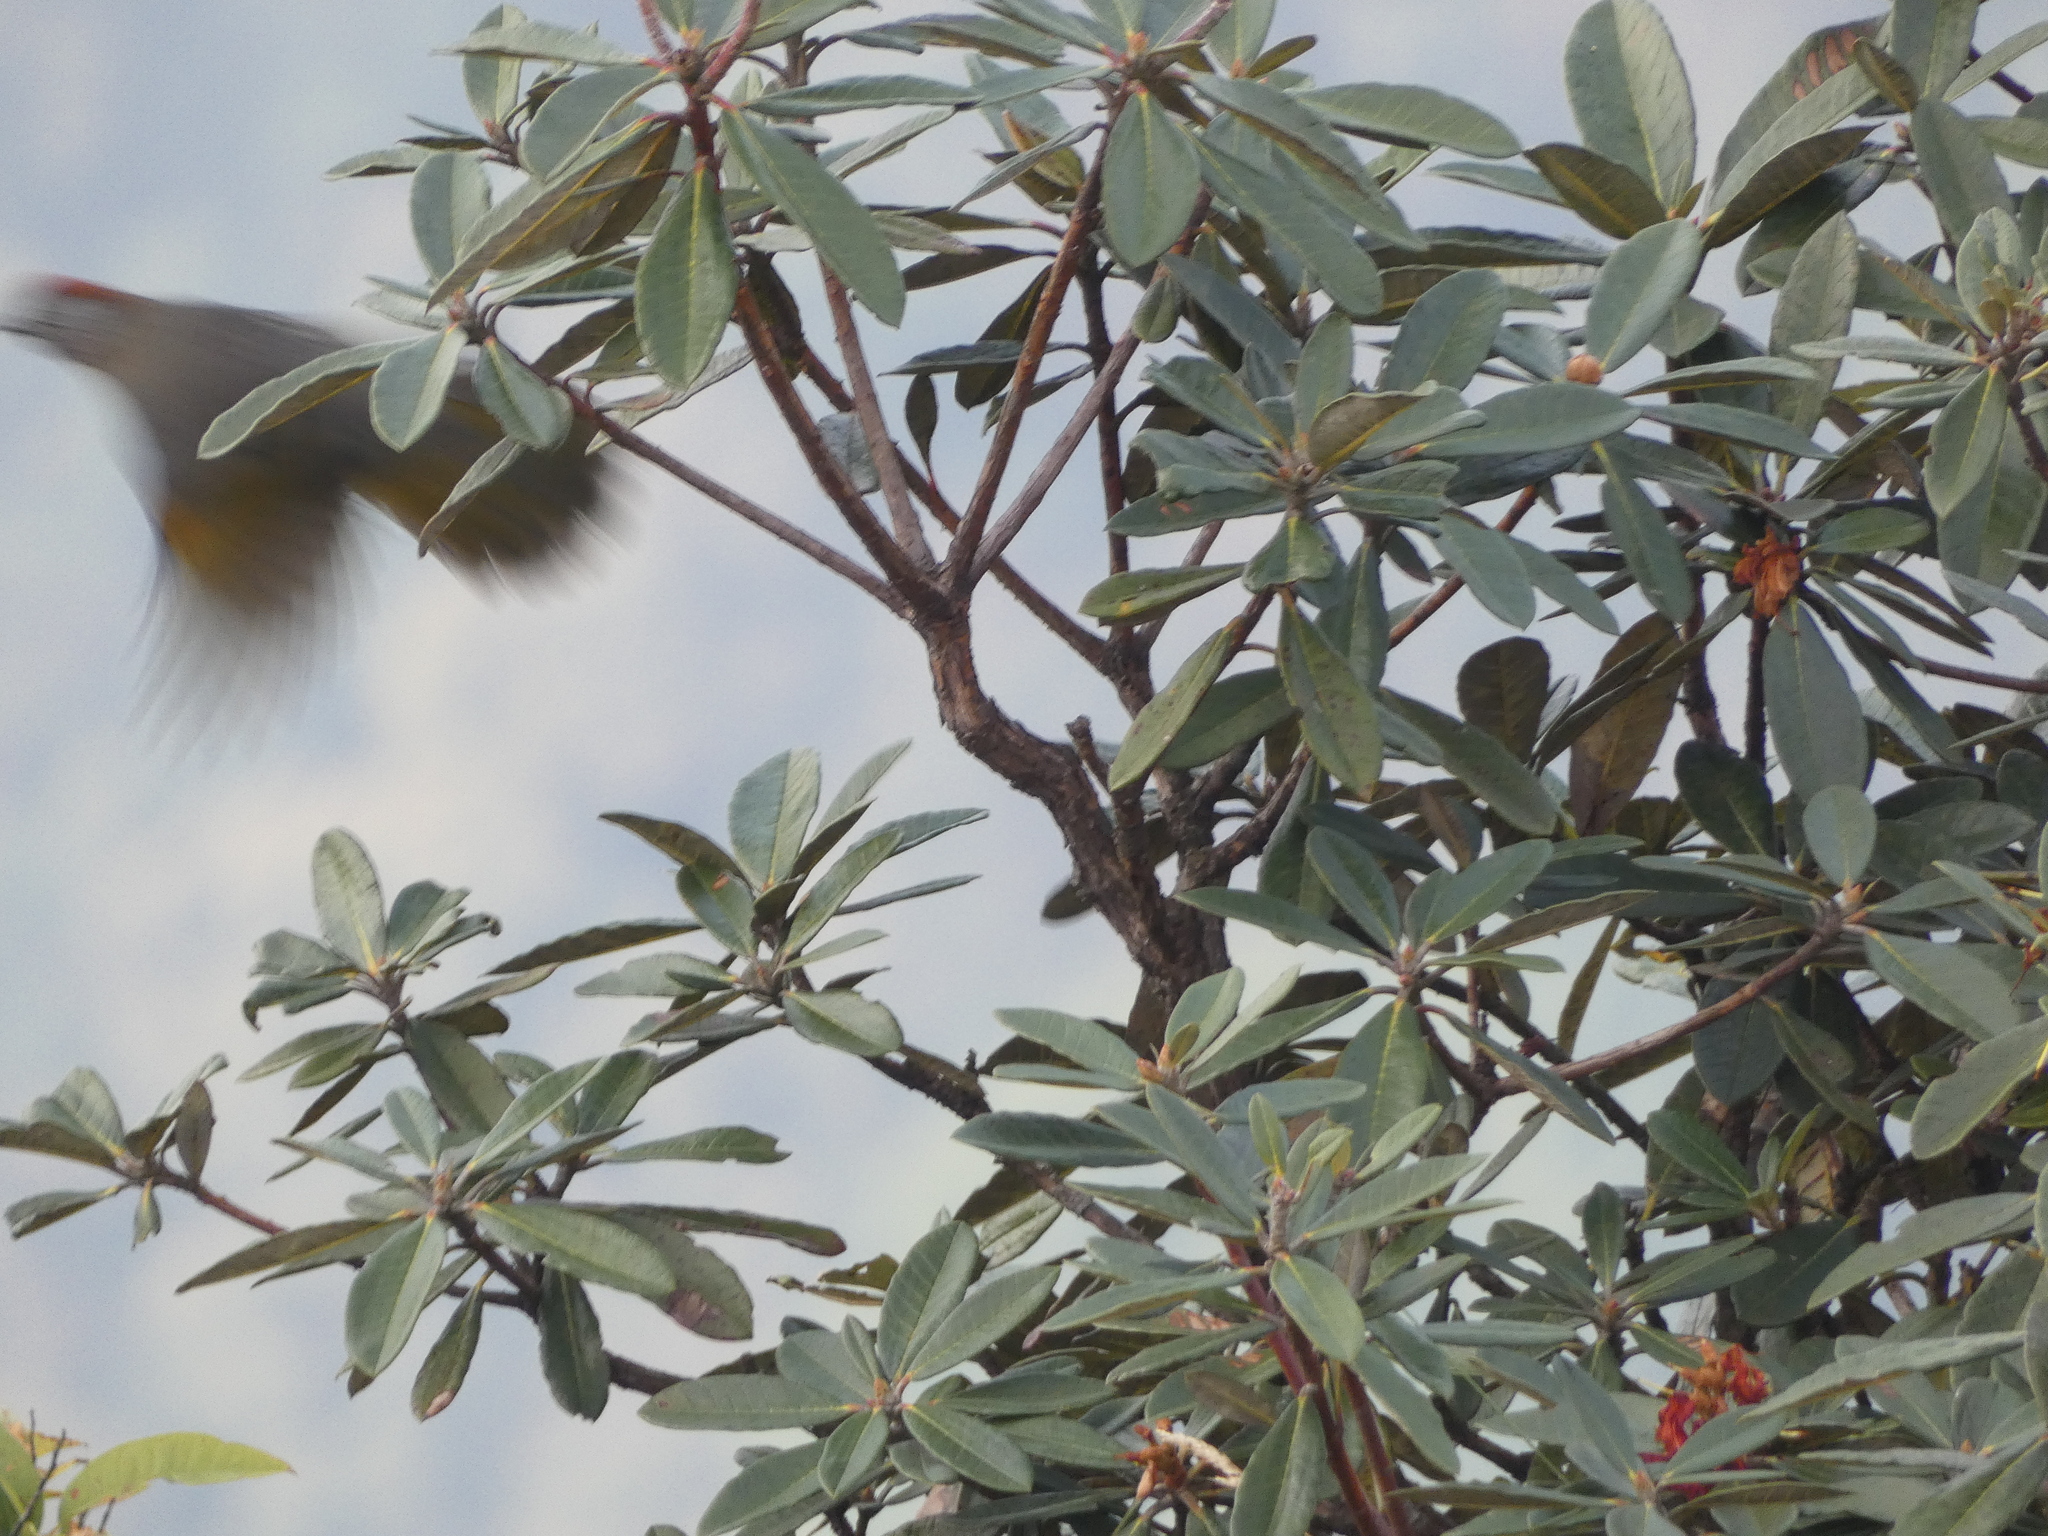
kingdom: Animalia
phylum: Chordata
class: Aves
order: Passeriformes
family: Leiothrichidae
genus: Trochalopteron
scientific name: Trochalopteron melanostigma
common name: Silver-eared laughingthrush
